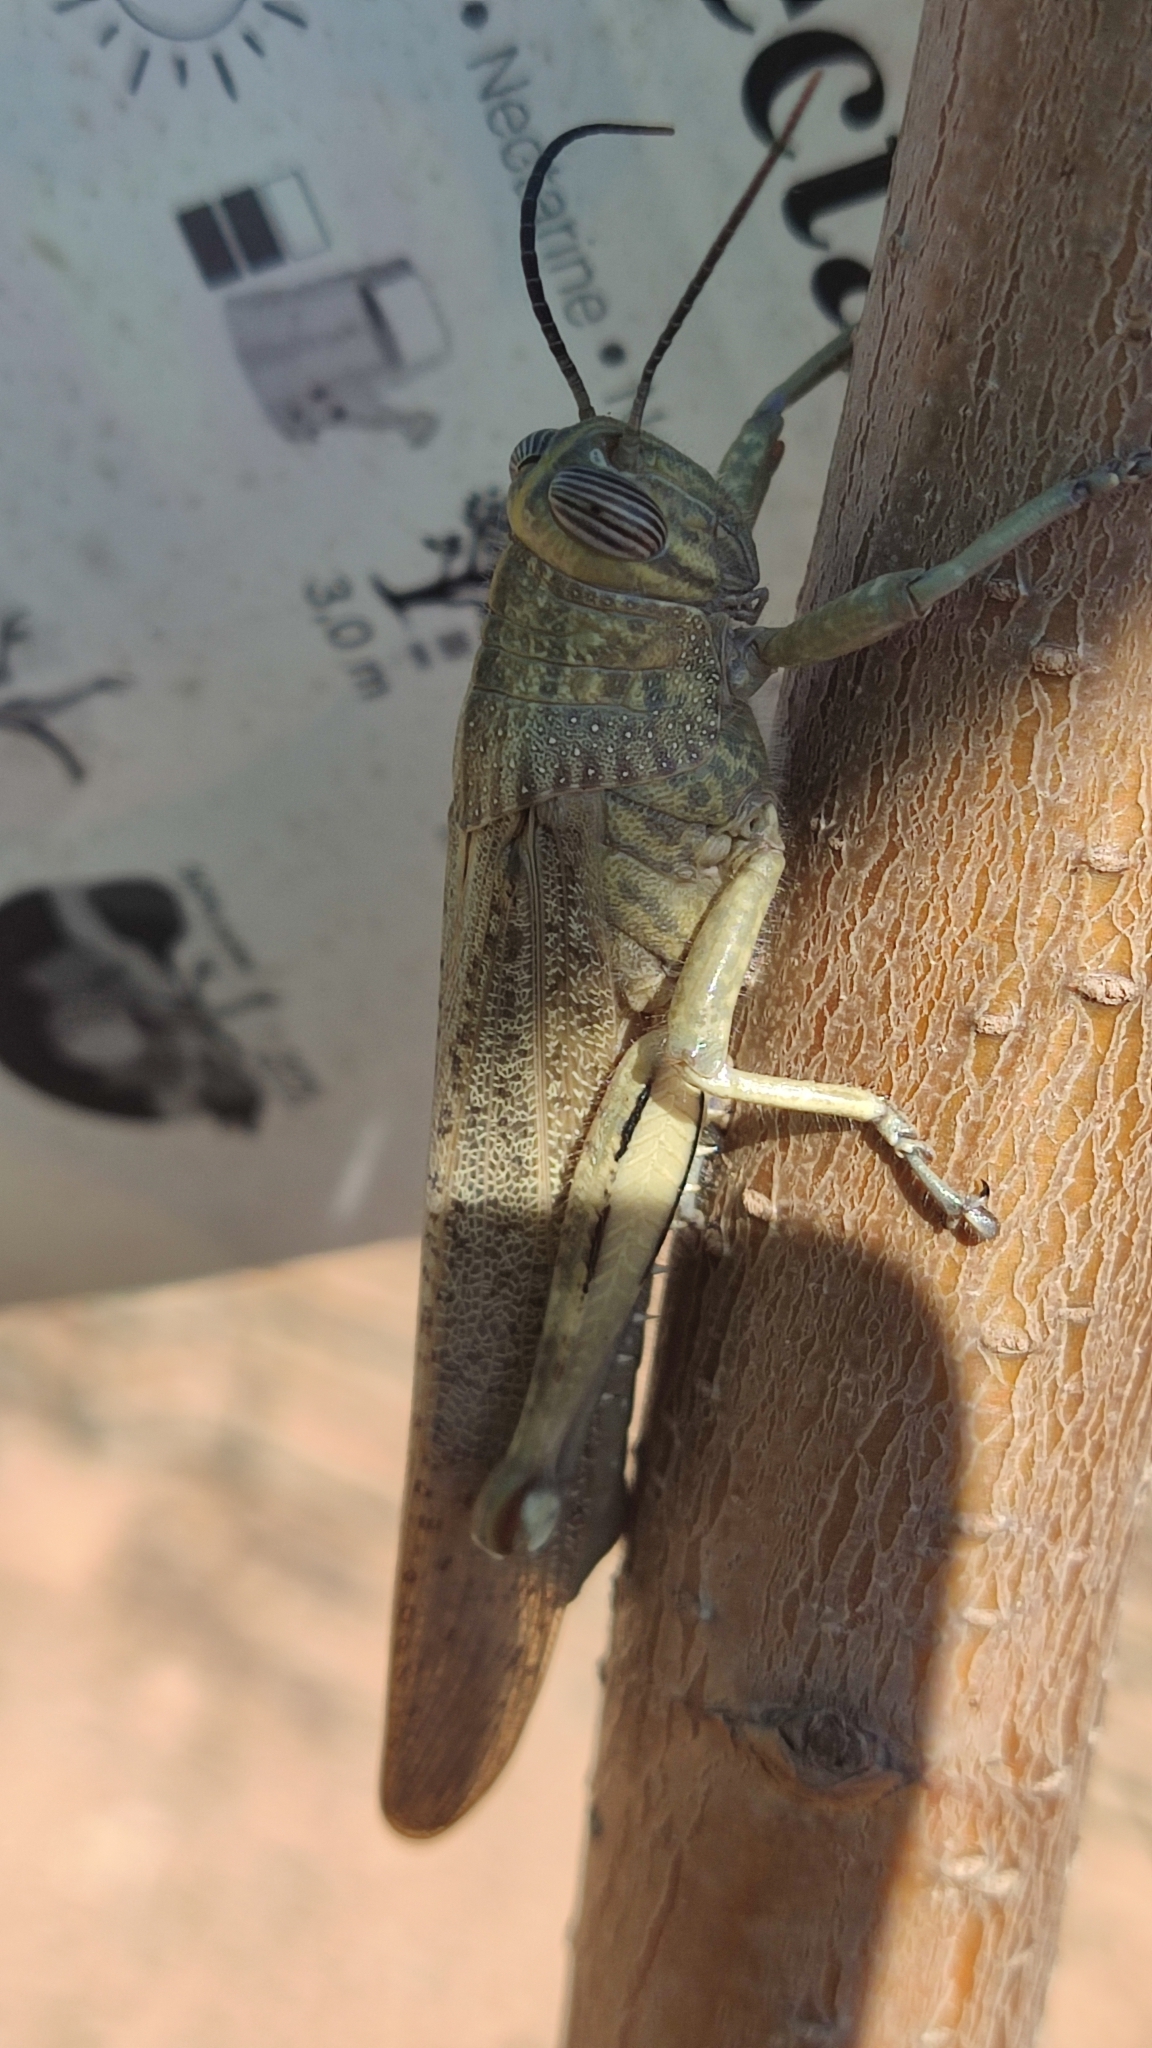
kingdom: Animalia
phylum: Arthropoda
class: Insecta
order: Orthoptera
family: Acrididae
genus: Anacridium
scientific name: Anacridium aegyptium
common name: Egyptian grasshopper
